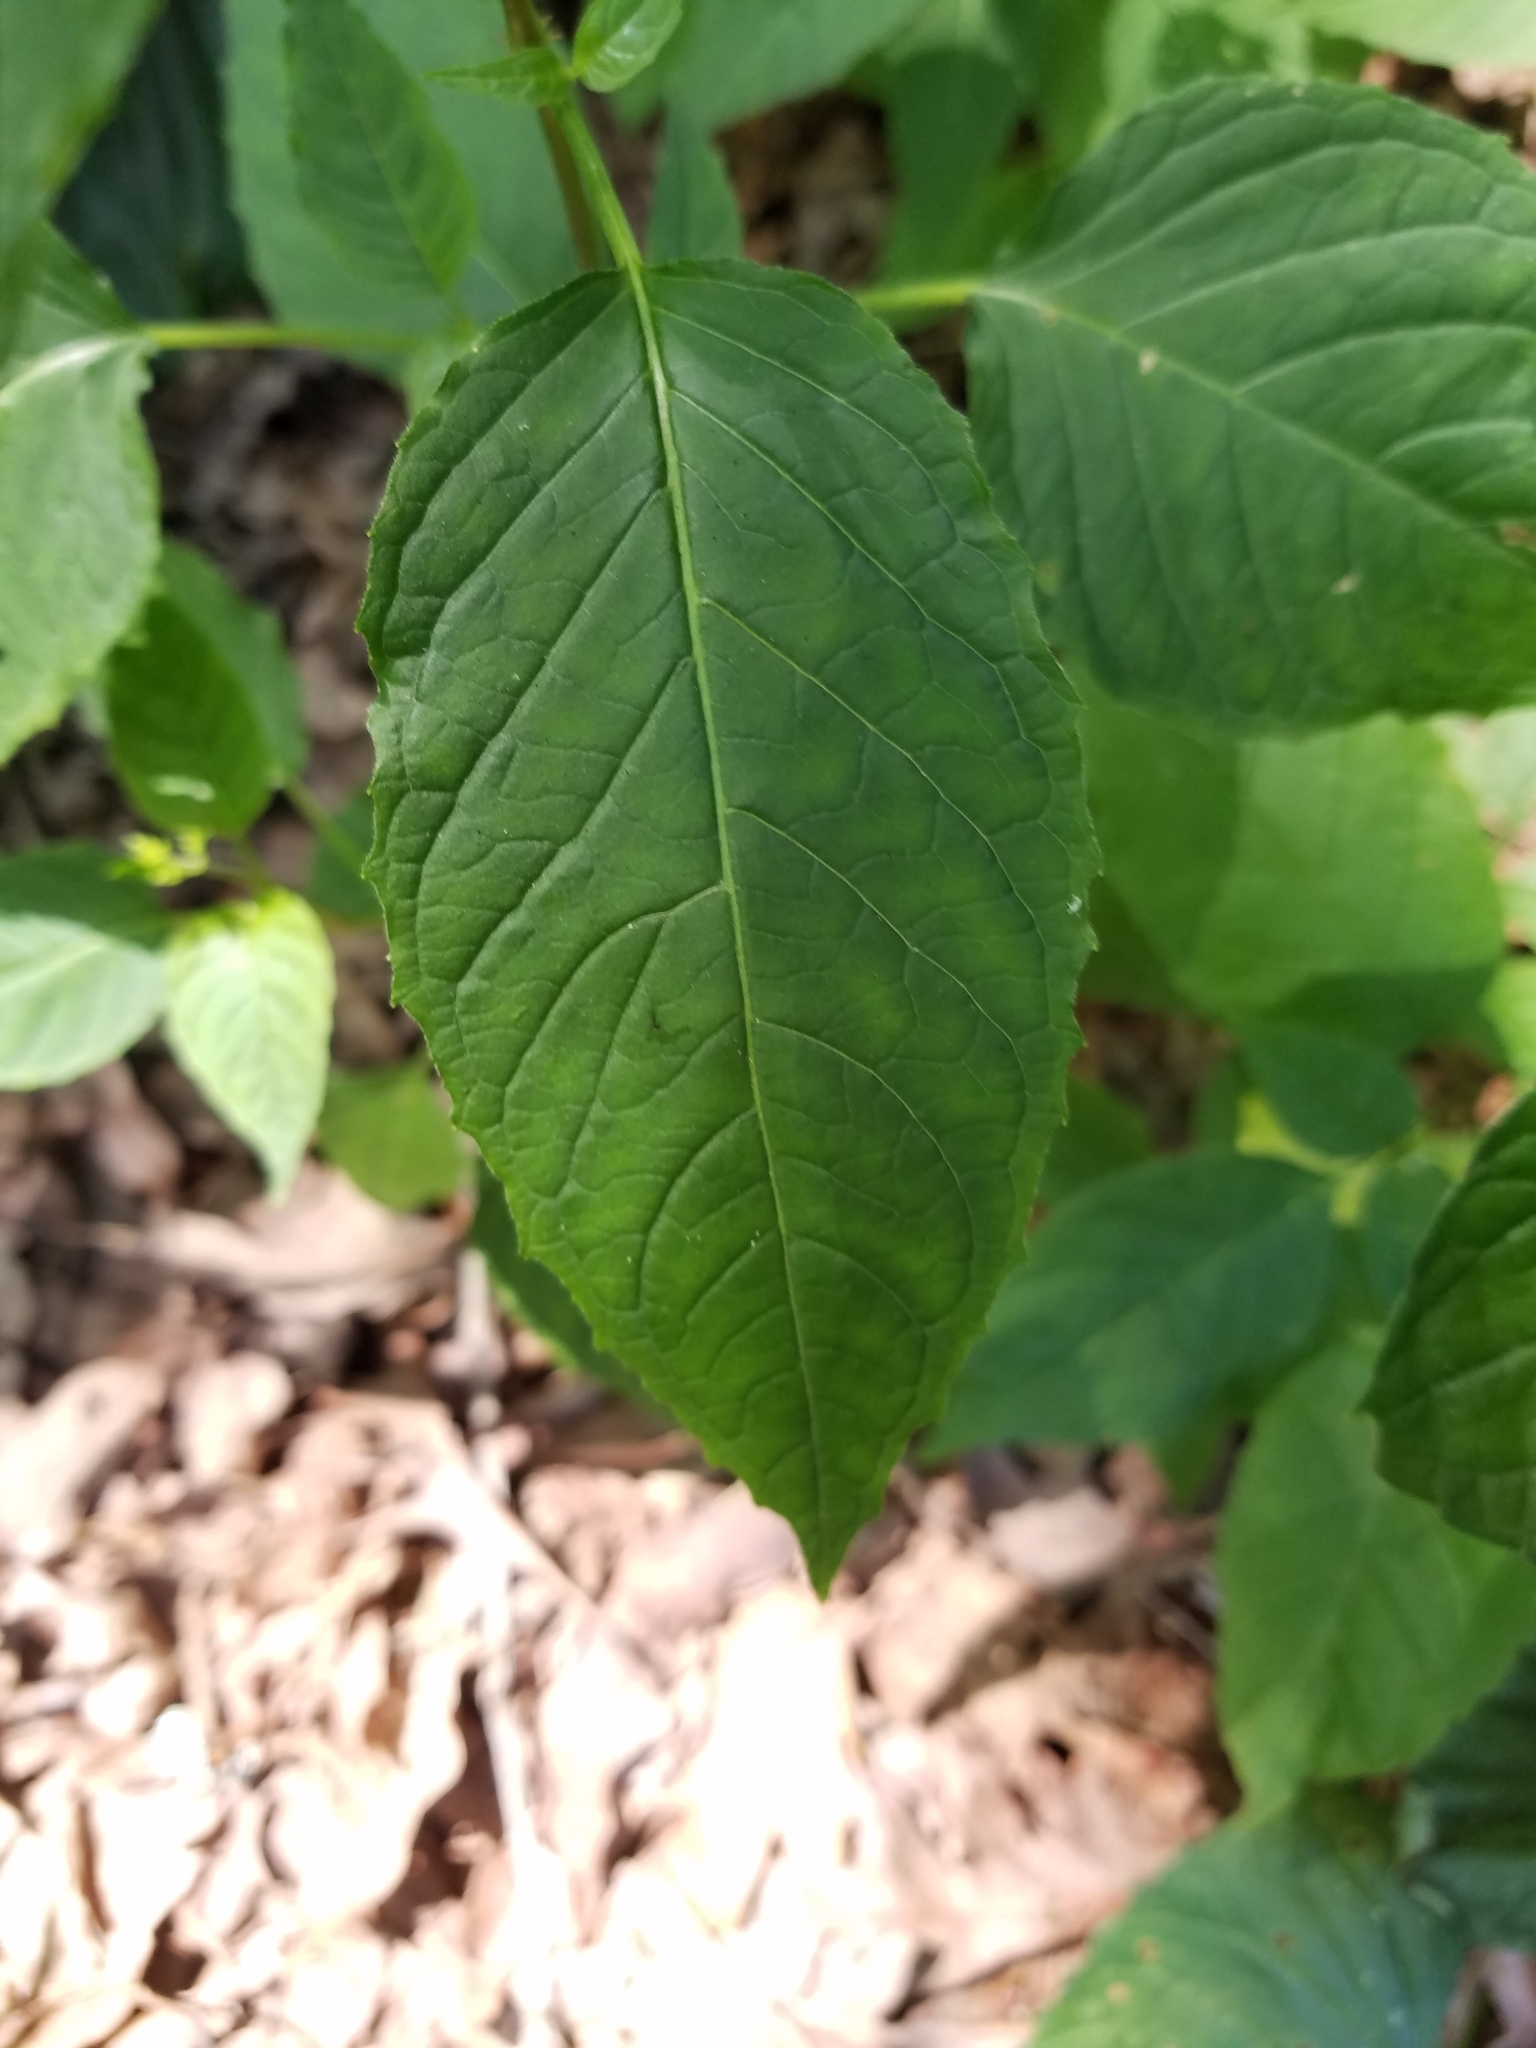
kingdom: Plantae
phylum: Tracheophyta
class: Magnoliopsida
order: Myrtales
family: Onagraceae
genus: Circaea
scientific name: Circaea canadensis
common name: Broad-leaved enchanter's nightshade
